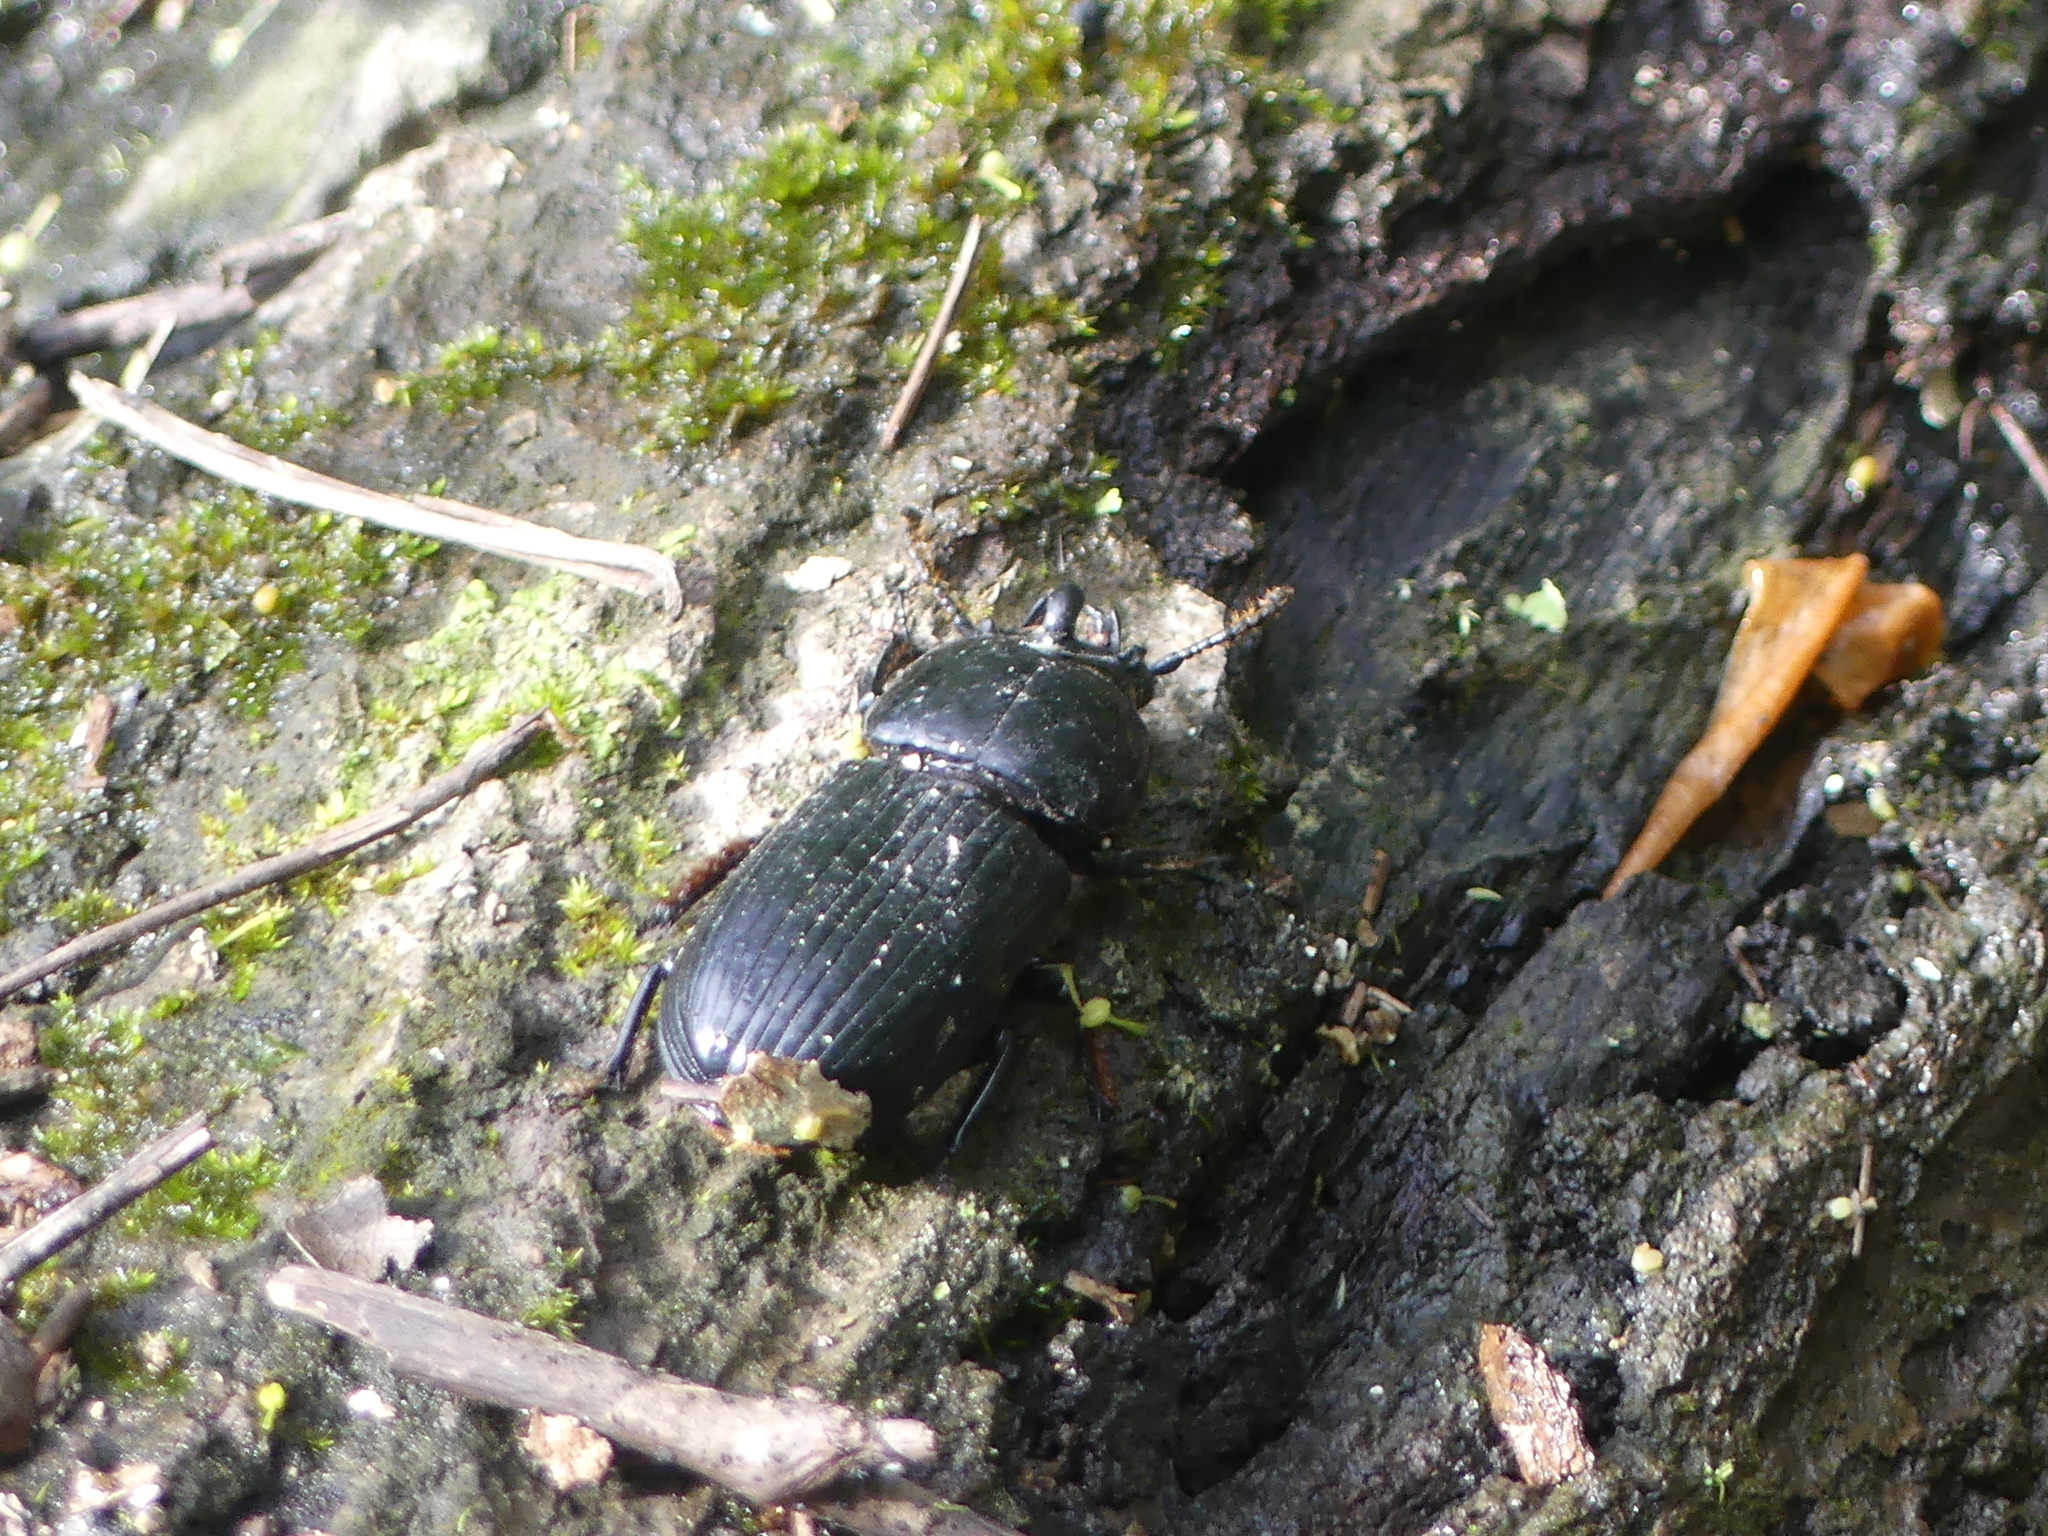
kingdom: Animalia
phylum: Arthropoda
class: Insecta
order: Coleoptera
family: Passalidae
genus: Odontotaenius
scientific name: Odontotaenius disjunctus
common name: Patent leather beetle
